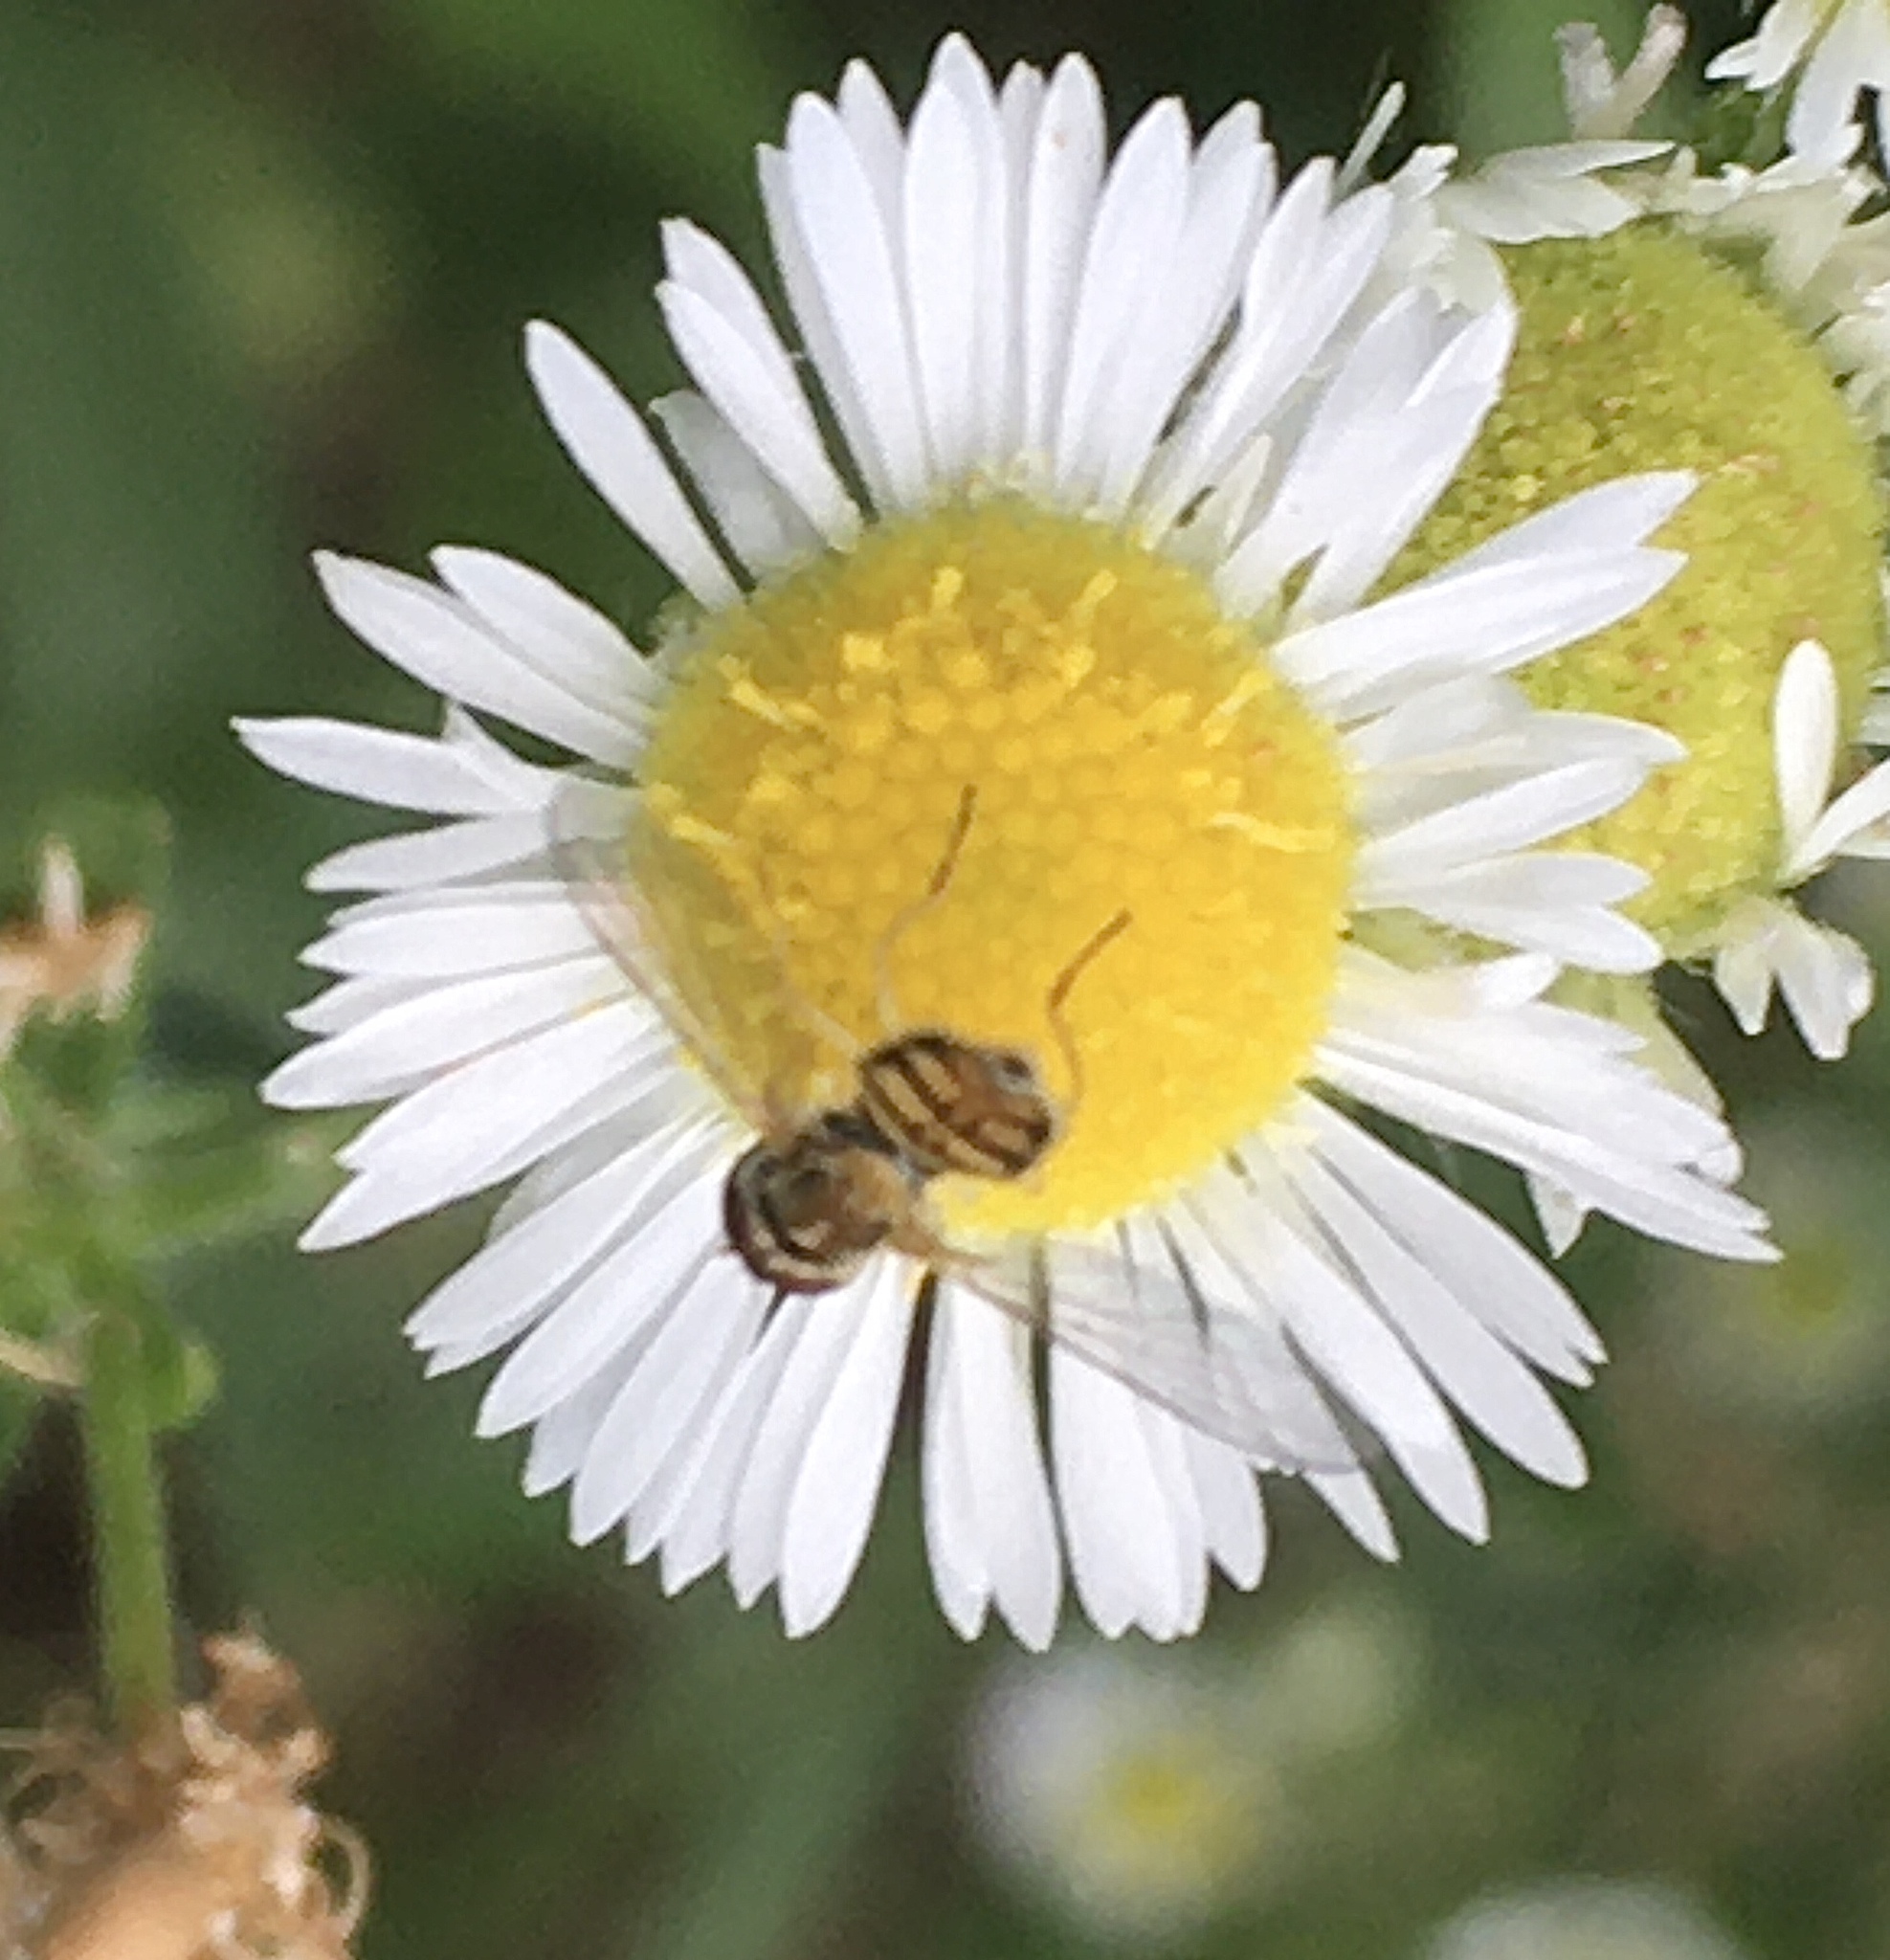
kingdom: Animalia
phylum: Arthropoda
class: Insecta
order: Diptera
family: Syrphidae
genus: Toxomerus
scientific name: Toxomerus marginatus
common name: Syrphid fly
